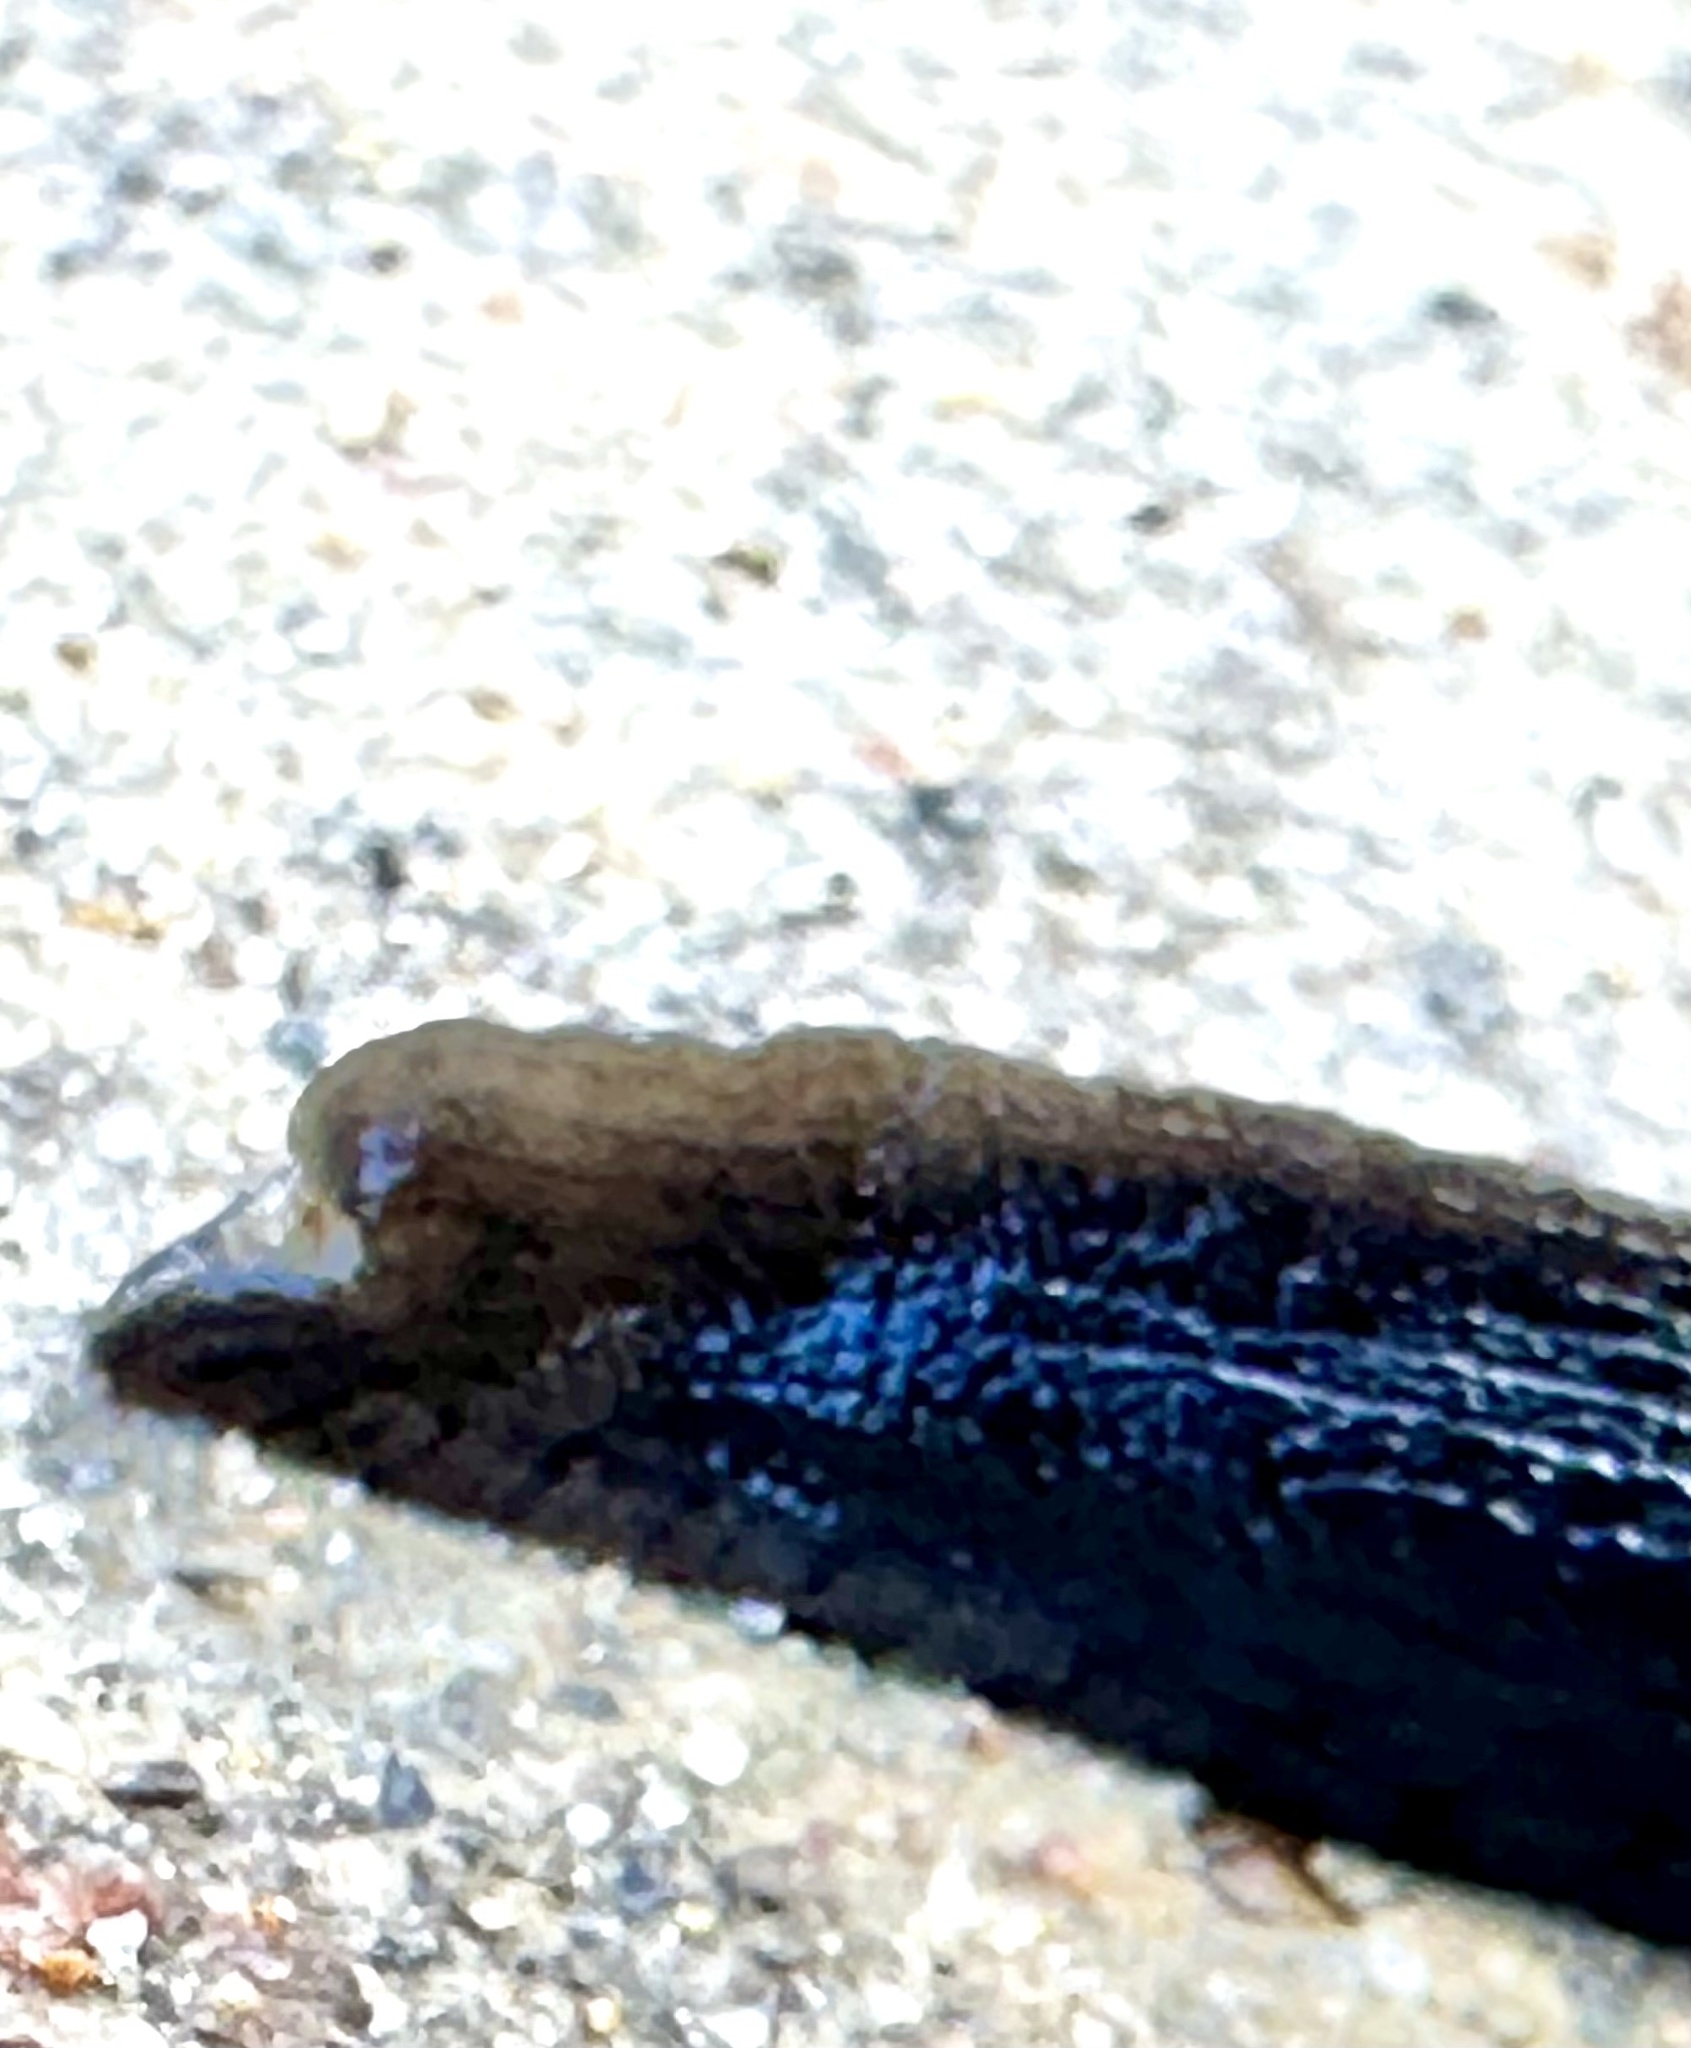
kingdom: Animalia
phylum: Mollusca
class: Gastropoda
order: Stylommatophora
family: Ariolimacidae
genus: Hesperarion
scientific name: Hesperarion niger
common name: Black western slug
